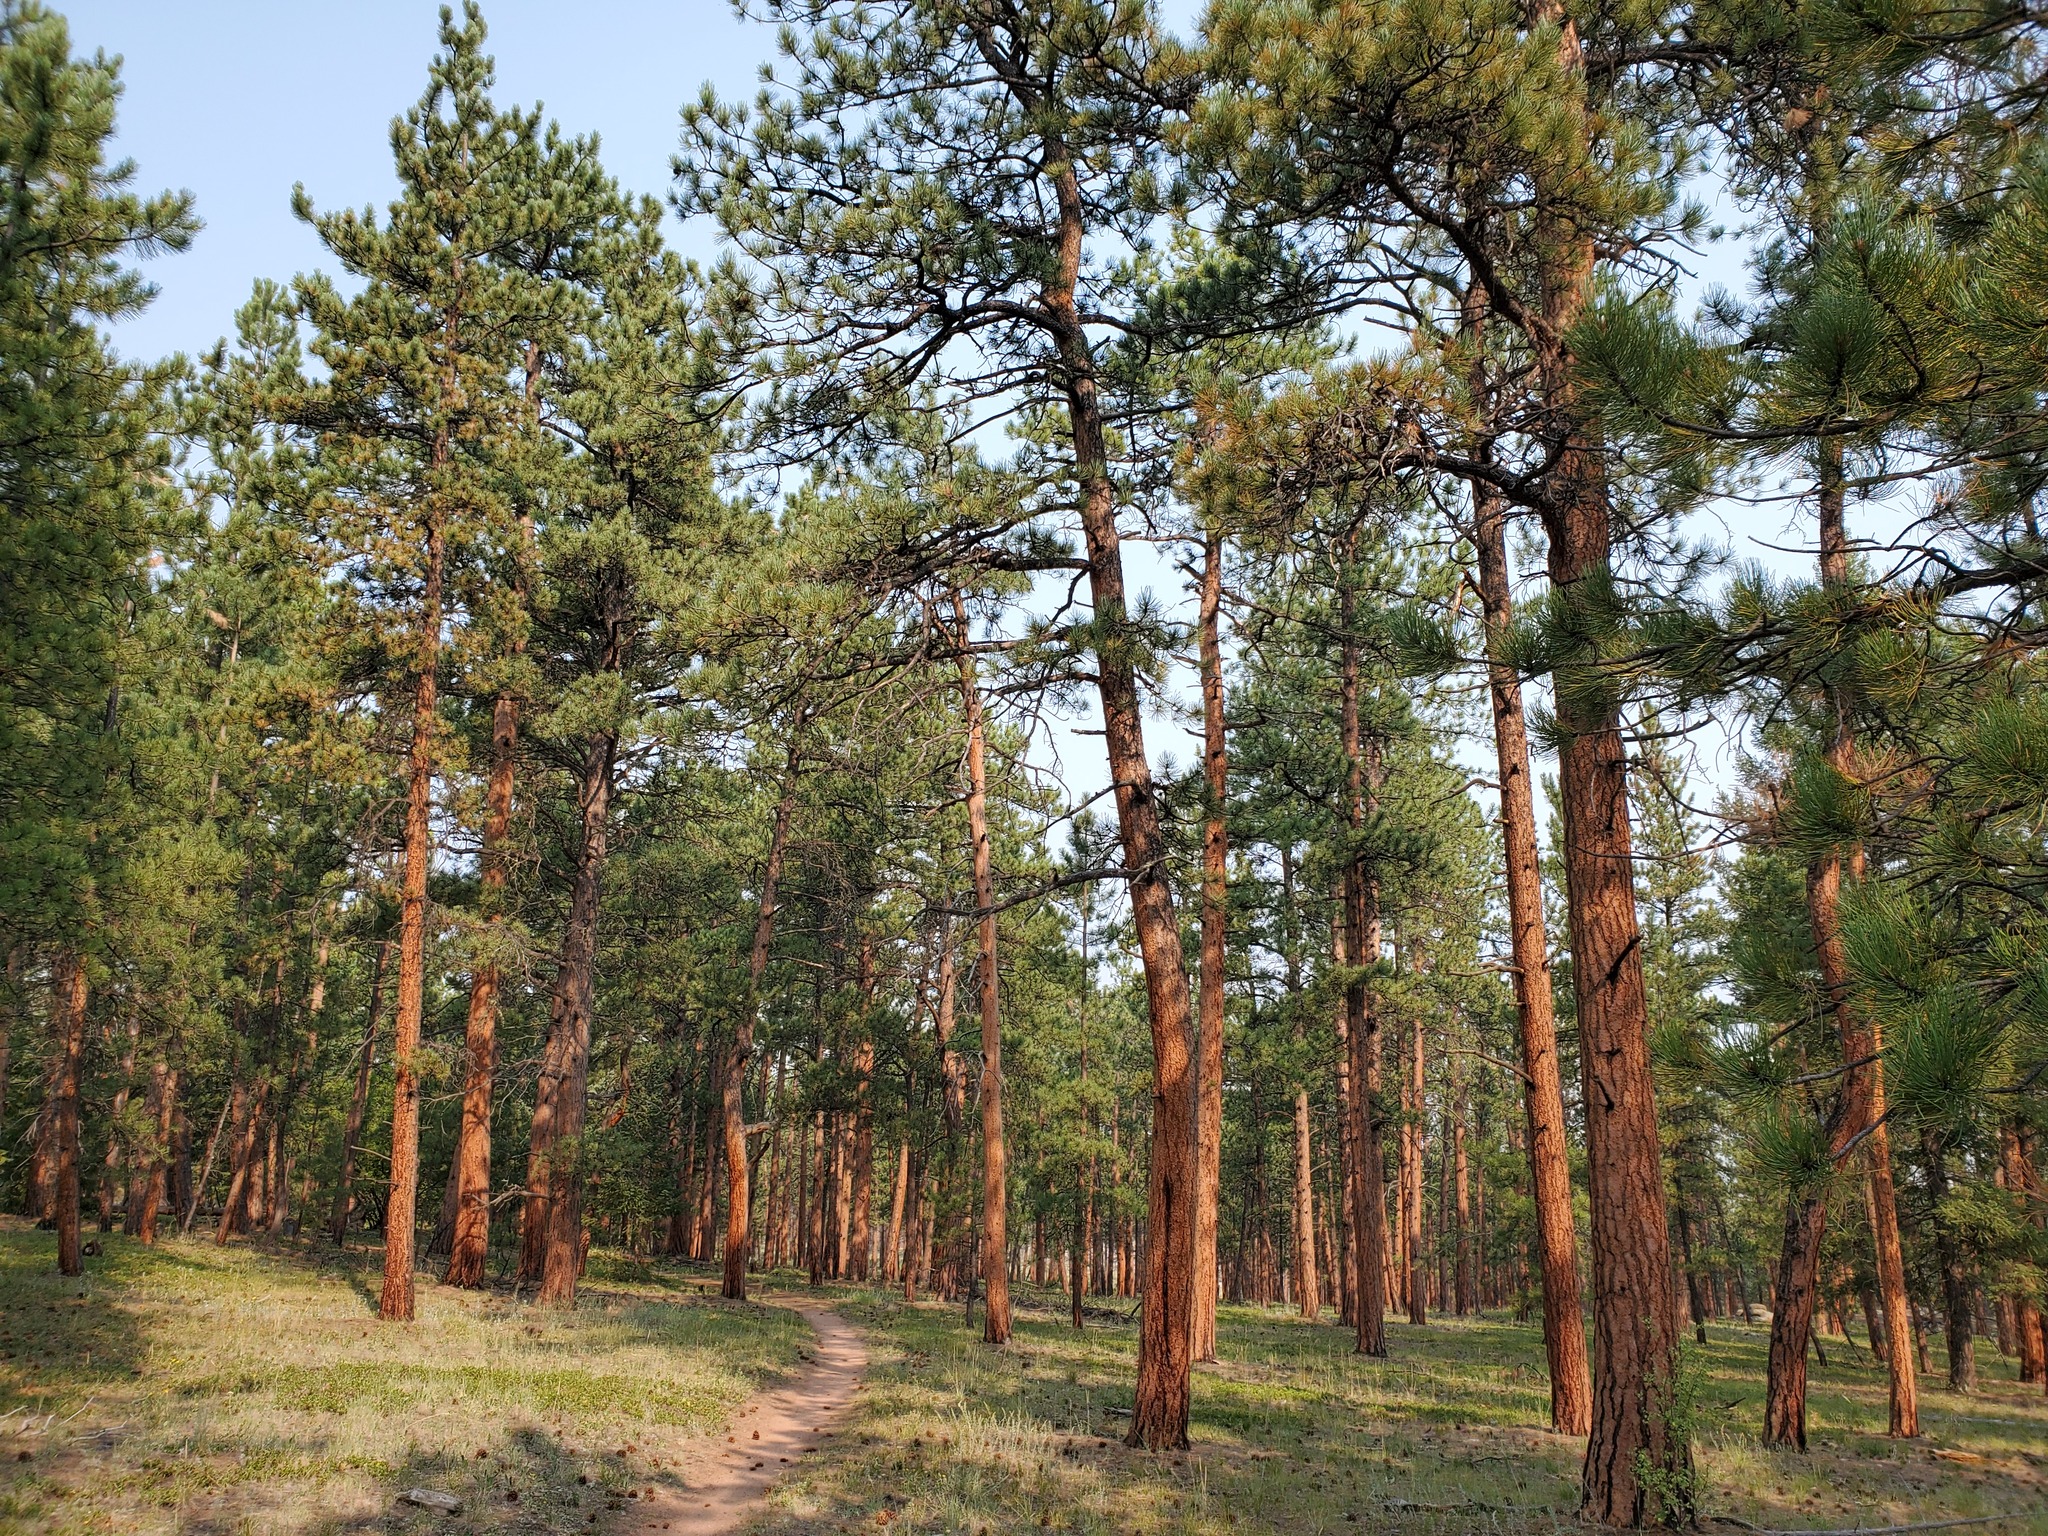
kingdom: Plantae
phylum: Tracheophyta
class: Pinopsida
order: Pinales
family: Pinaceae
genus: Pinus
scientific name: Pinus ponderosa
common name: Western yellow-pine
